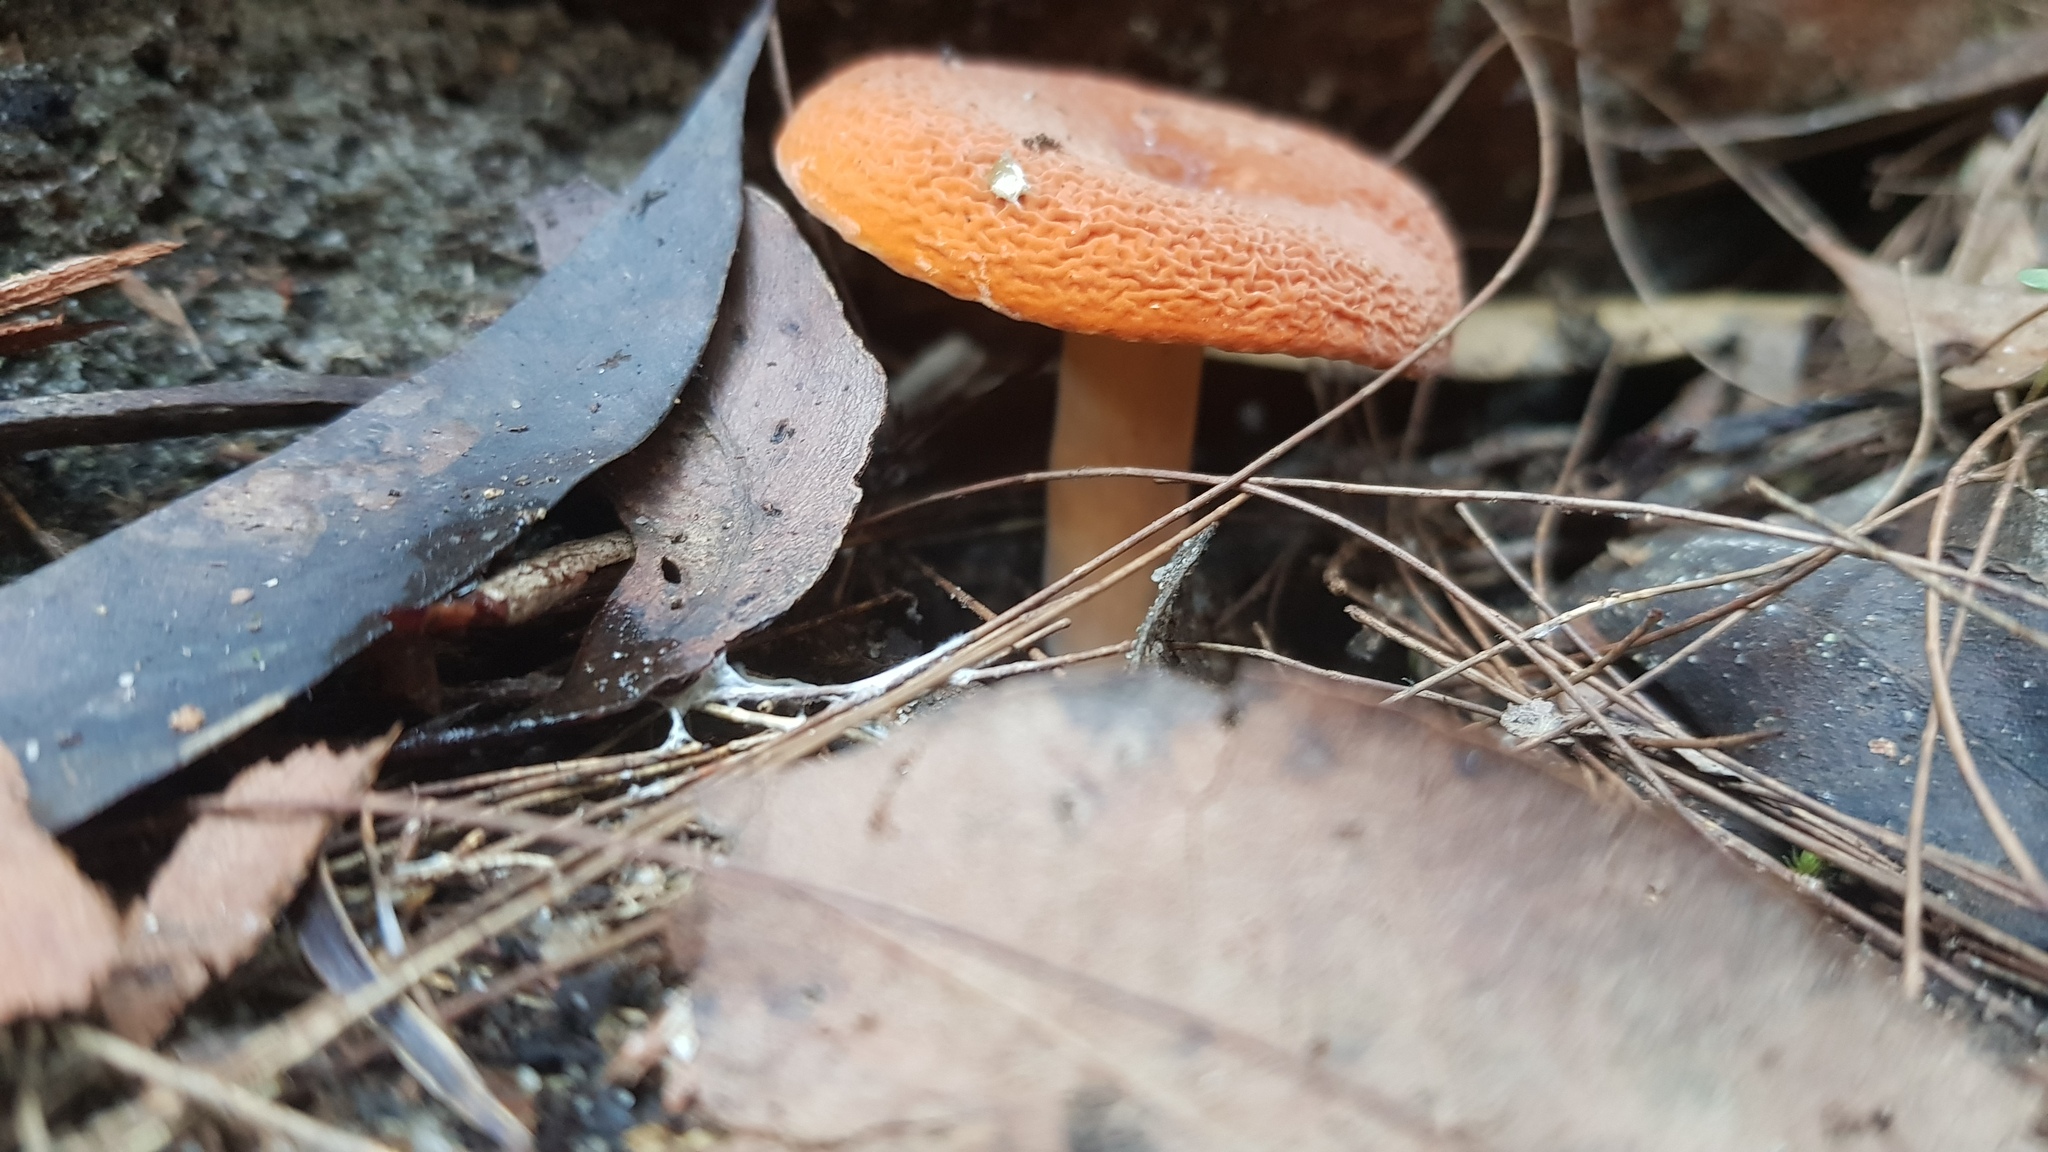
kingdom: Fungi
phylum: Basidiomycota
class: Agaricomycetes
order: Russulales
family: Russulaceae
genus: Lactifluus
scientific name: Lactifluus clarkeae
